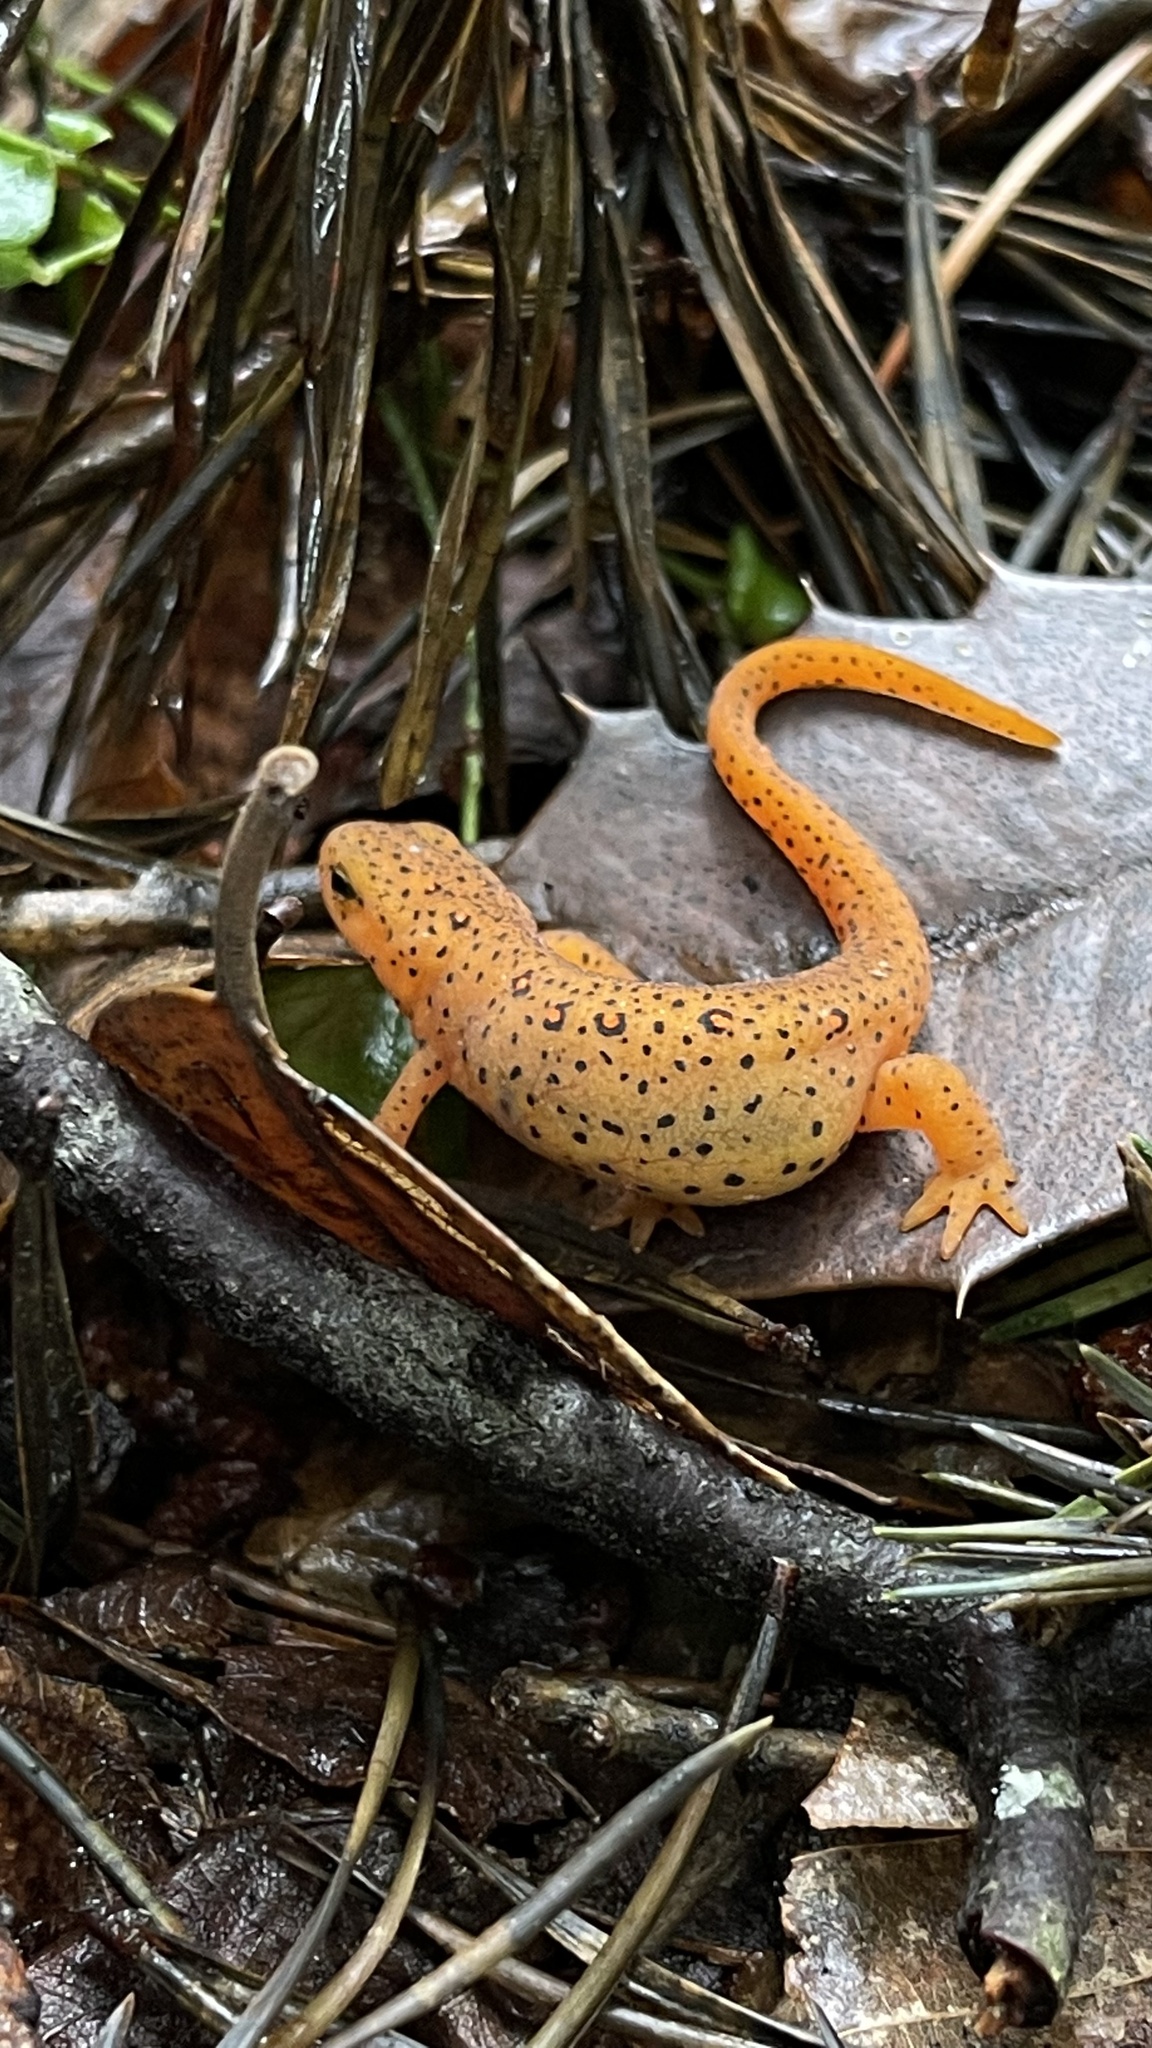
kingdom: Animalia
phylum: Chordata
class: Amphibia
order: Caudata
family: Salamandridae
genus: Notophthalmus
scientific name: Notophthalmus viridescens
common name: Eastern newt
